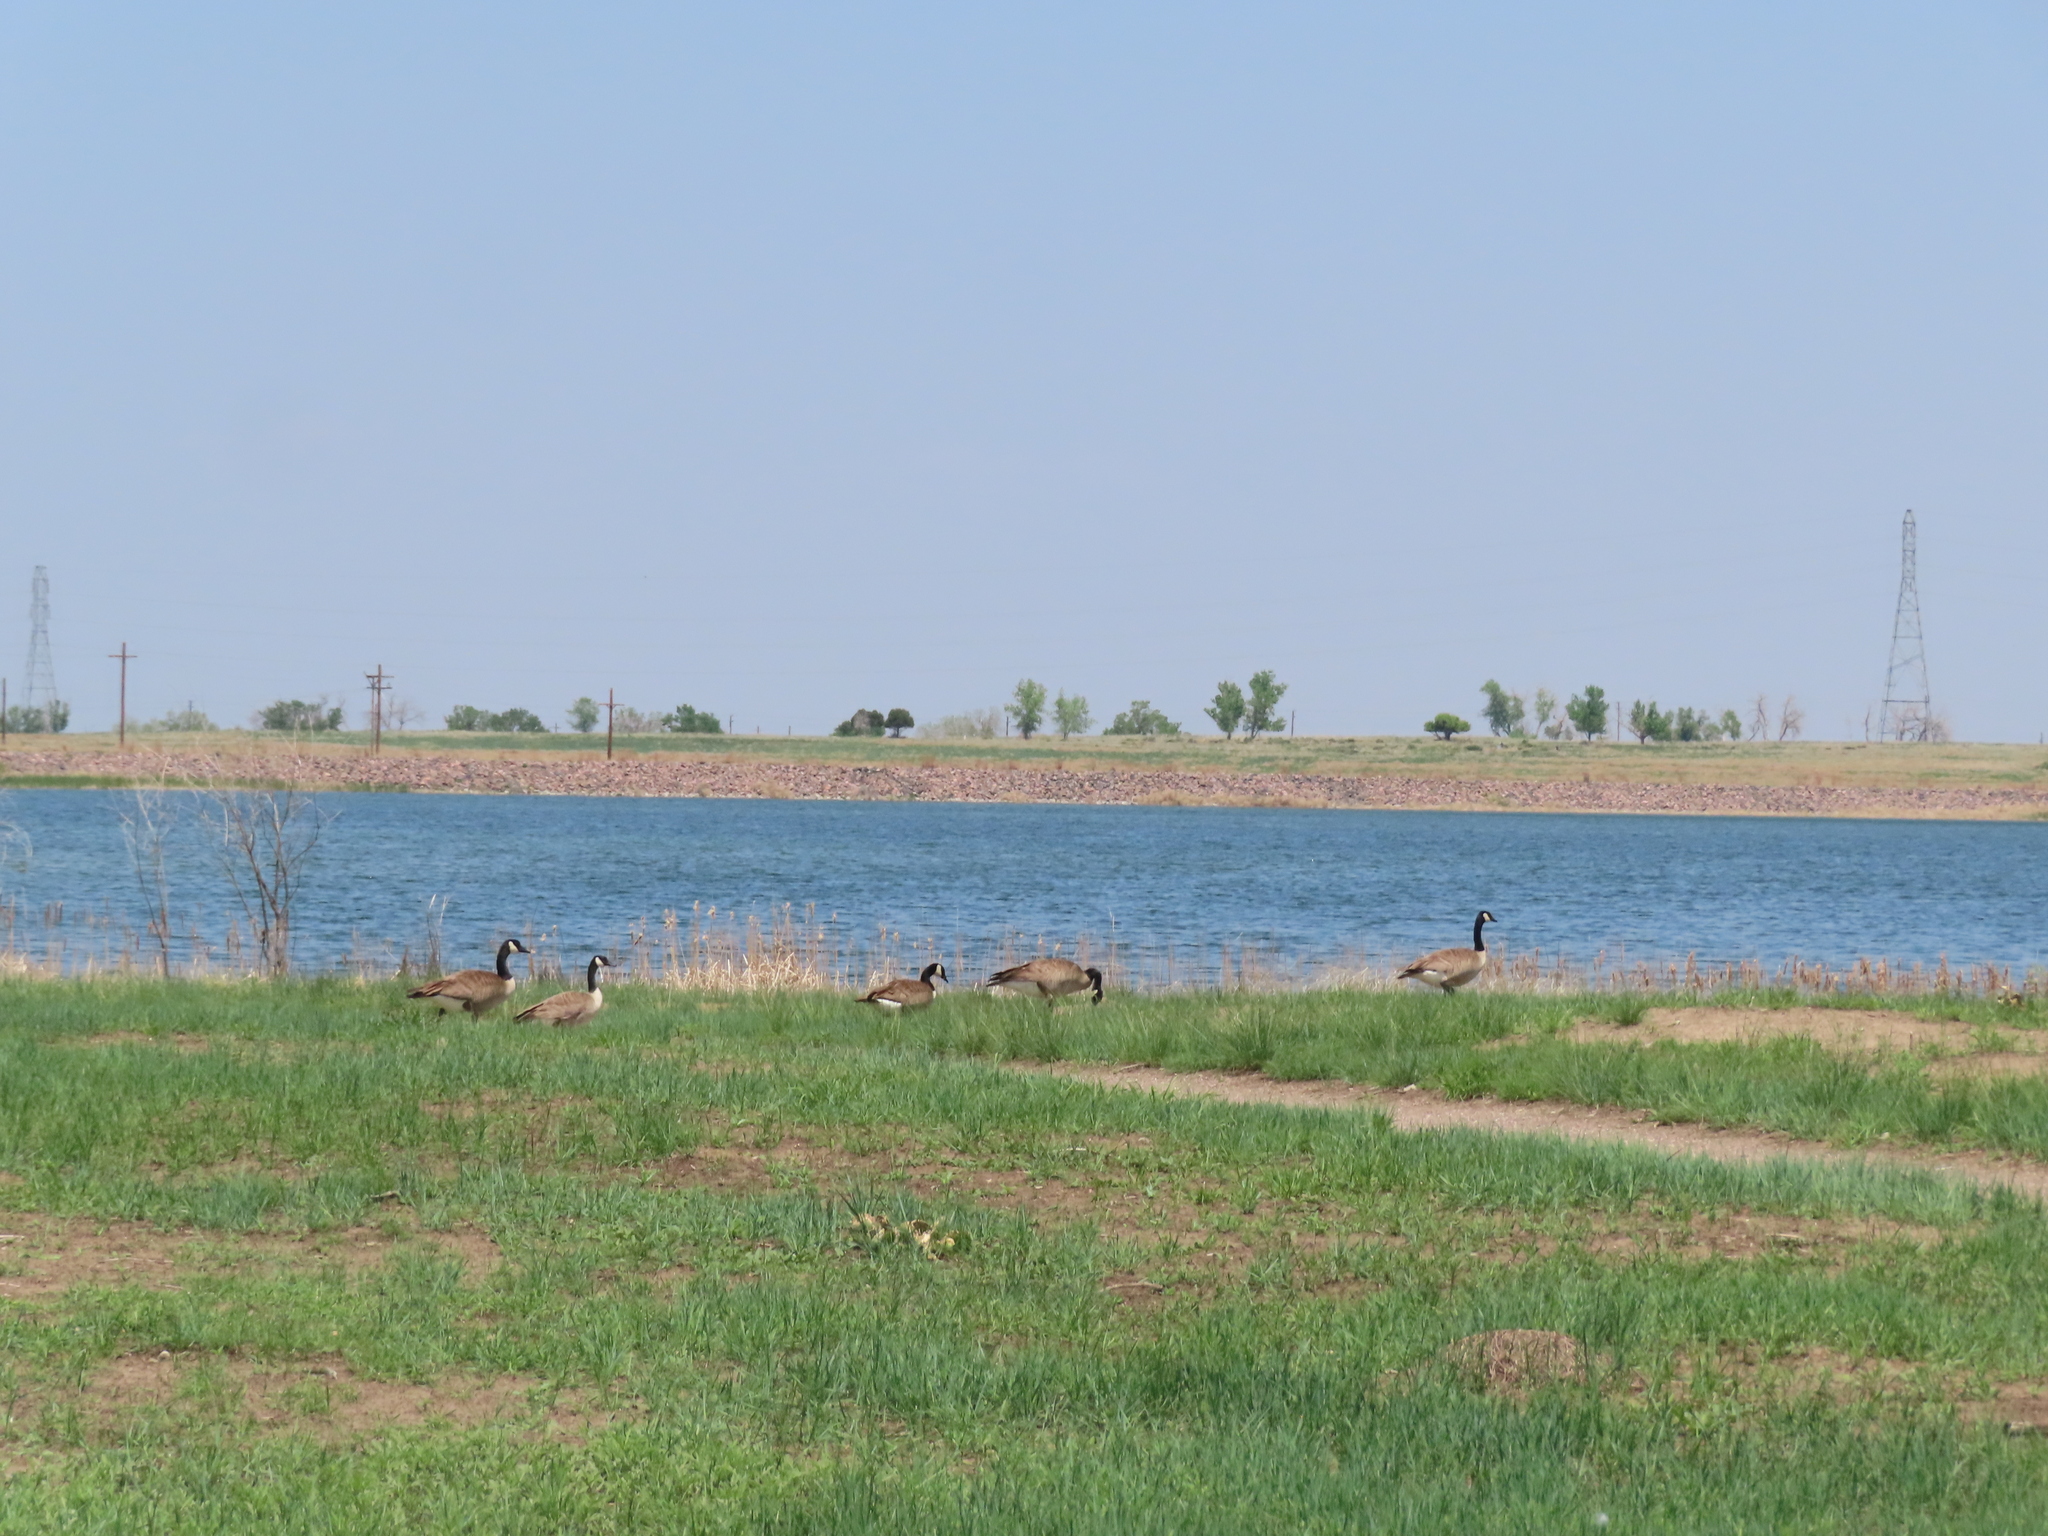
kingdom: Animalia
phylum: Chordata
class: Aves
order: Anseriformes
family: Anatidae
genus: Branta
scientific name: Branta canadensis
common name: Canada goose
